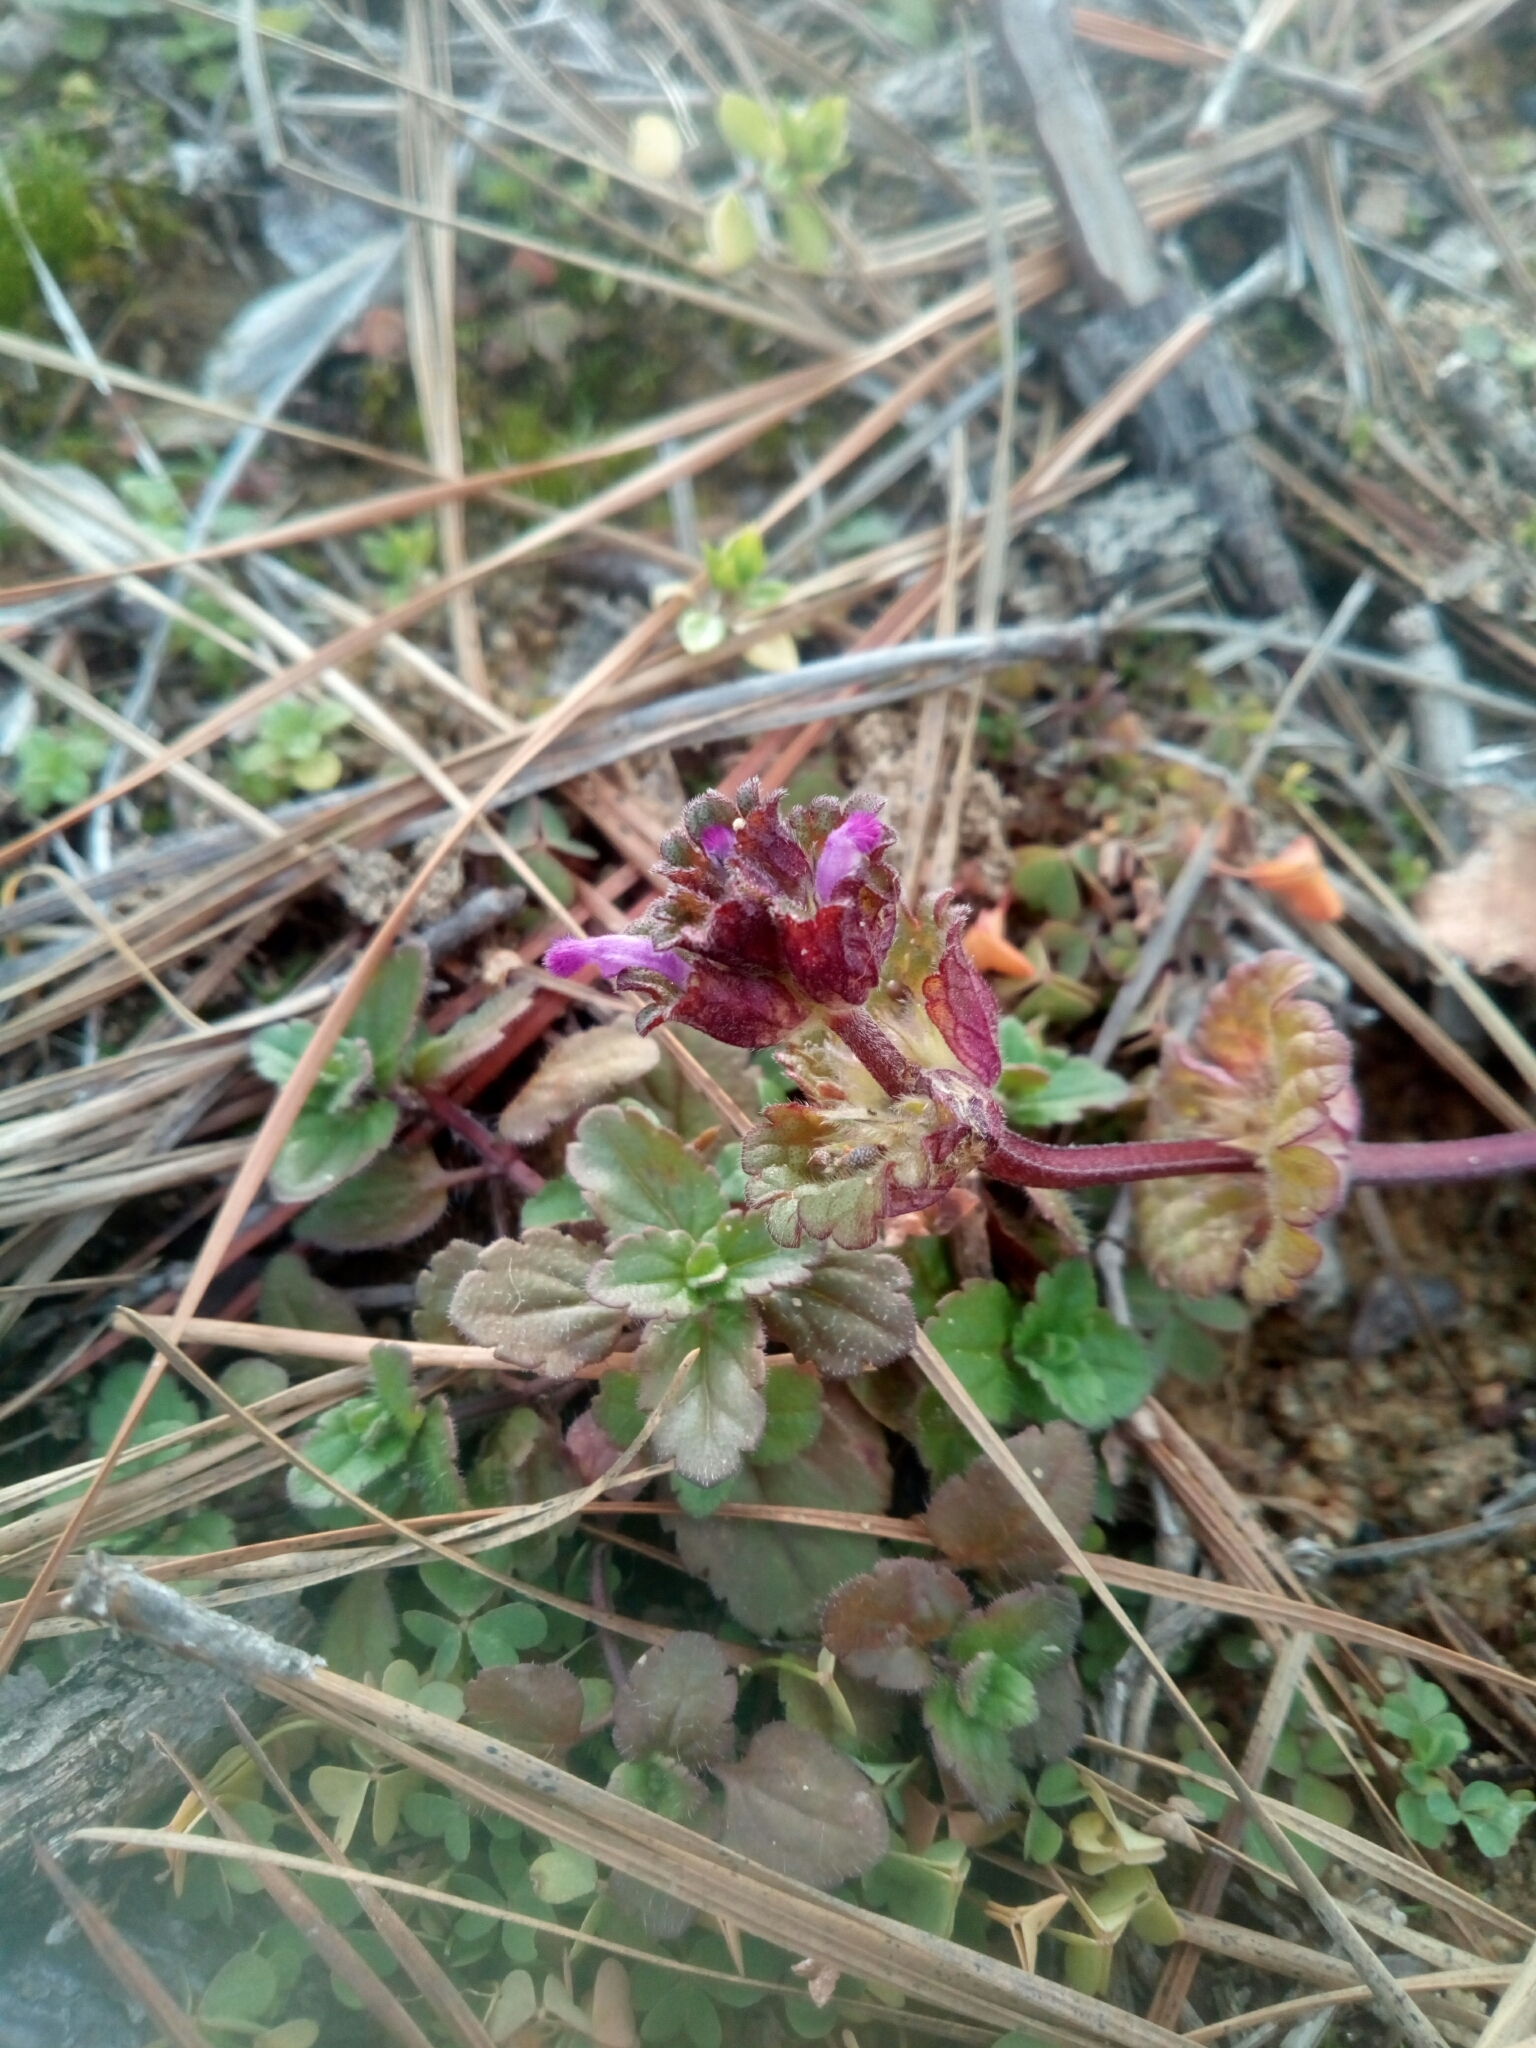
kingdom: Plantae
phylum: Tracheophyta
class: Magnoliopsida
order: Lamiales
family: Lamiaceae
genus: Lamium
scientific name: Lamium amplexicaule
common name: Henbit dead-nettle
